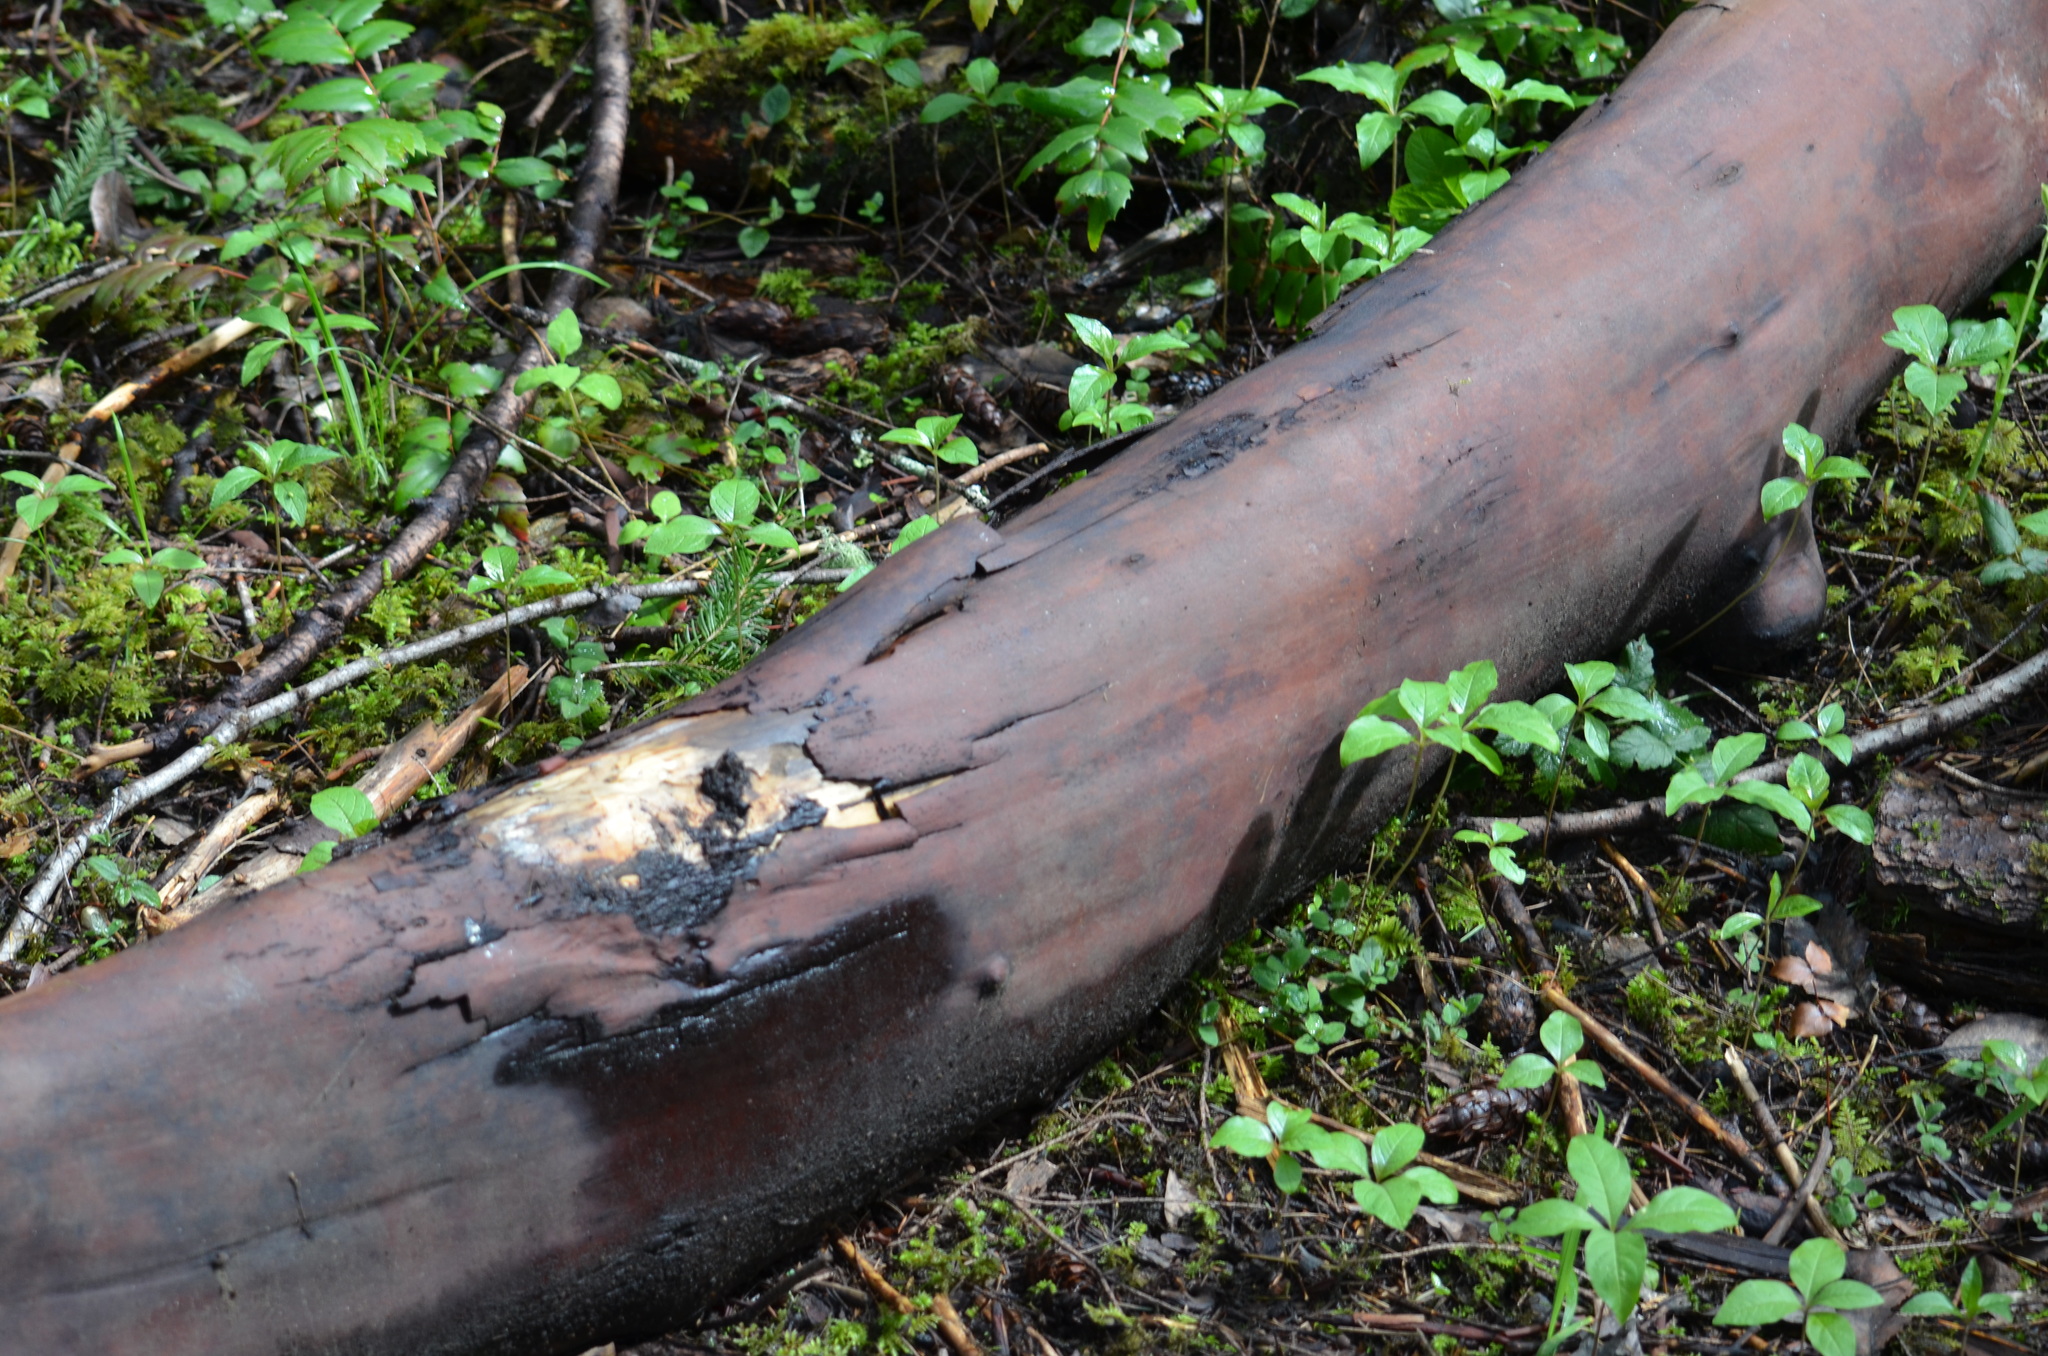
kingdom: Plantae
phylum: Tracheophyta
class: Magnoliopsida
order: Ericales
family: Ericaceae
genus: Arbutus
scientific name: Arbutus menziesii
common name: Pacific madrone
